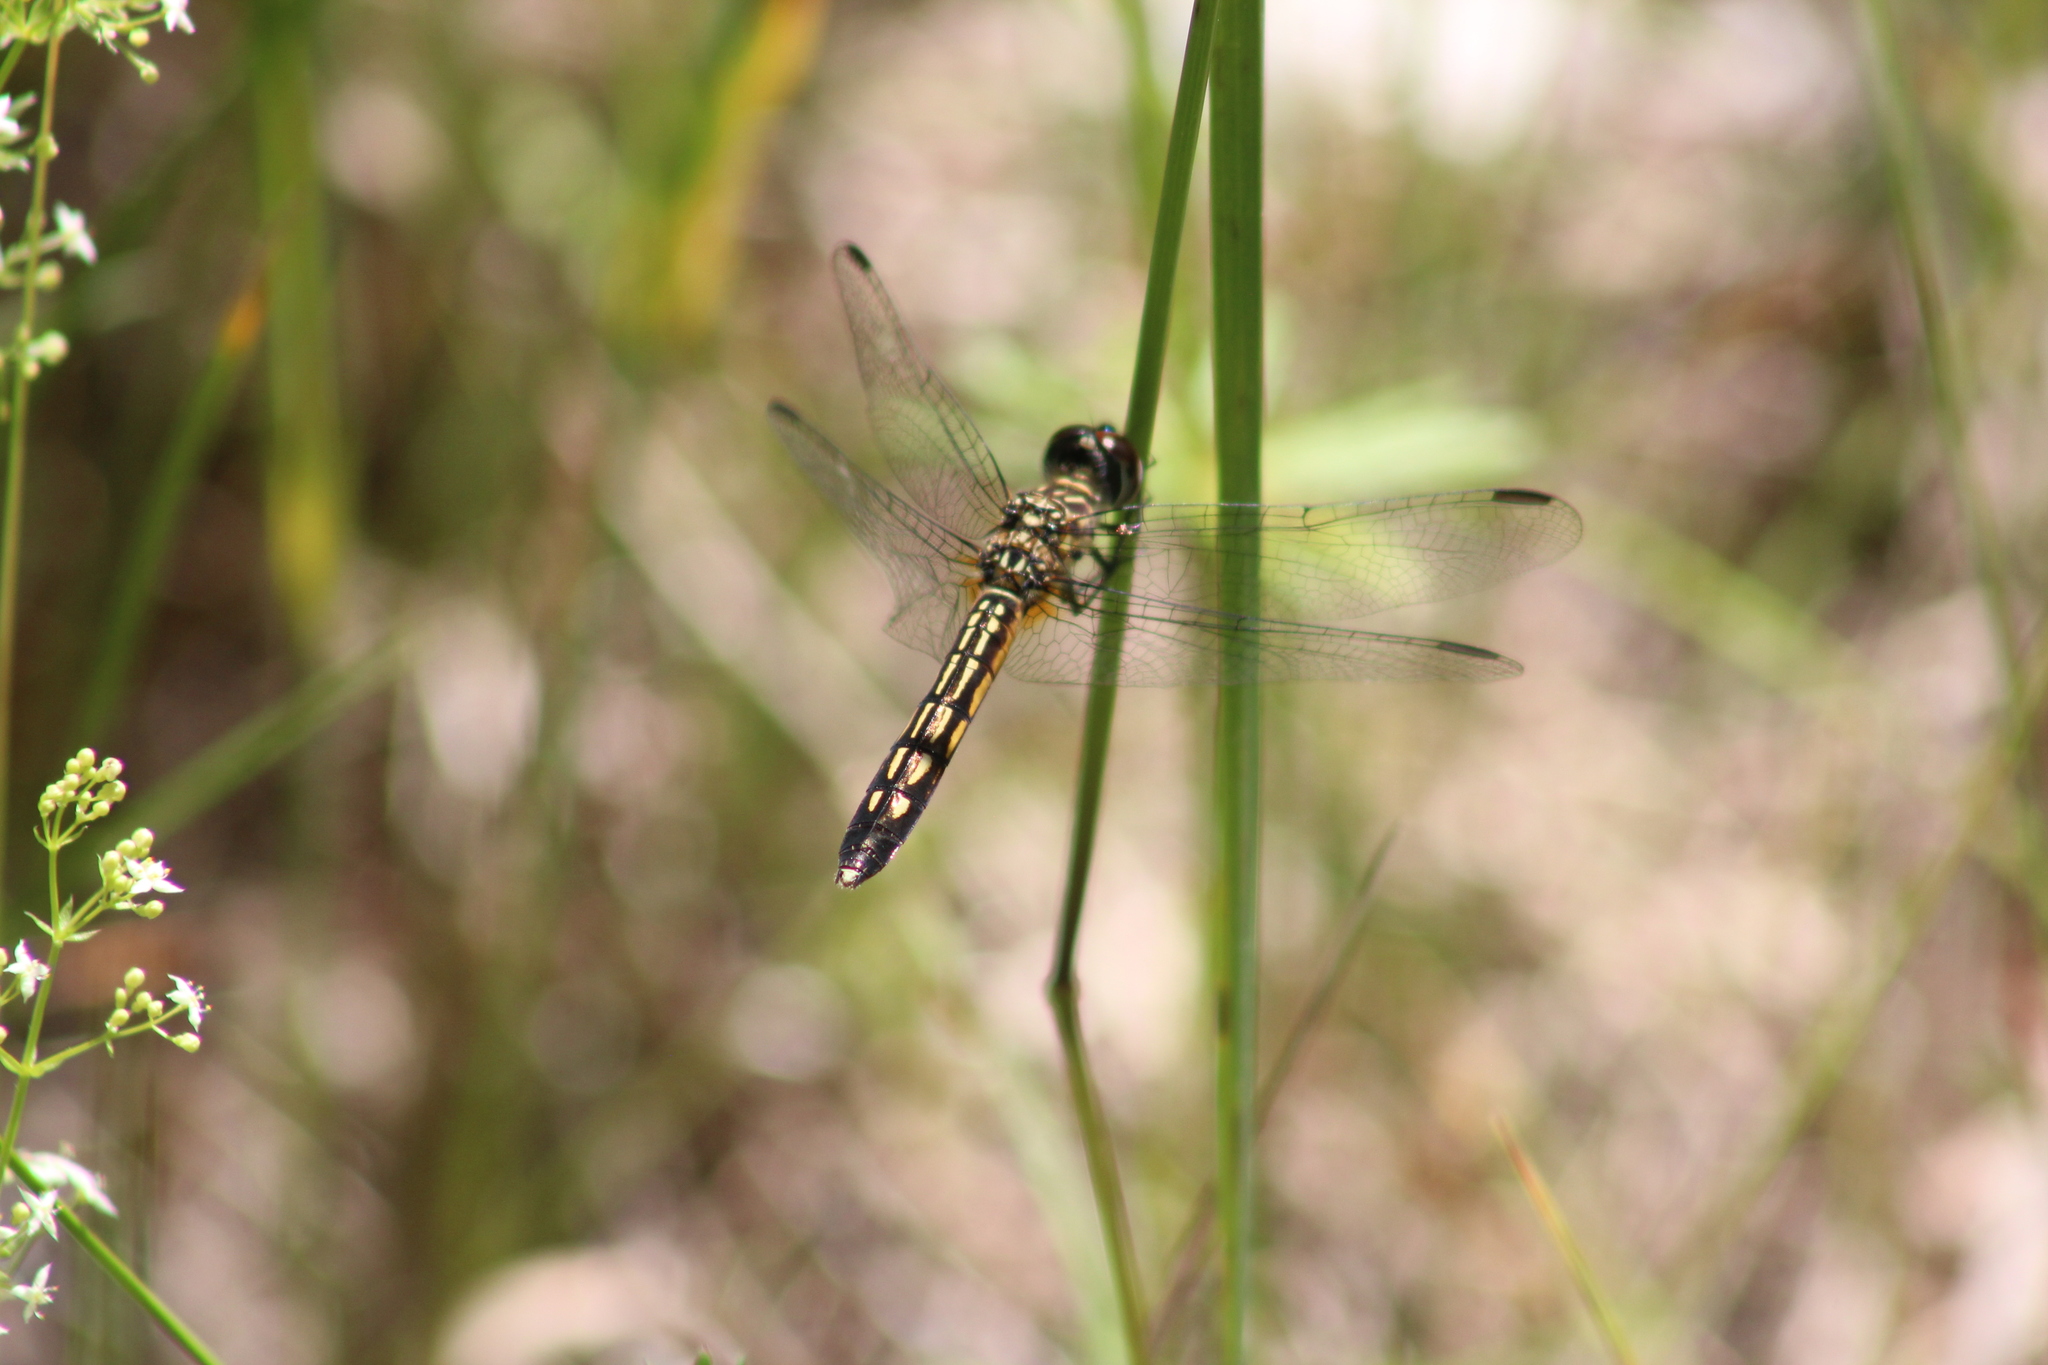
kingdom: Animalia
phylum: Arthropoda
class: Insecta
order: Odonata
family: Libellulidae
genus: Pachydiplax
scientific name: Pachydiplax longipennis
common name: Blue dasher
